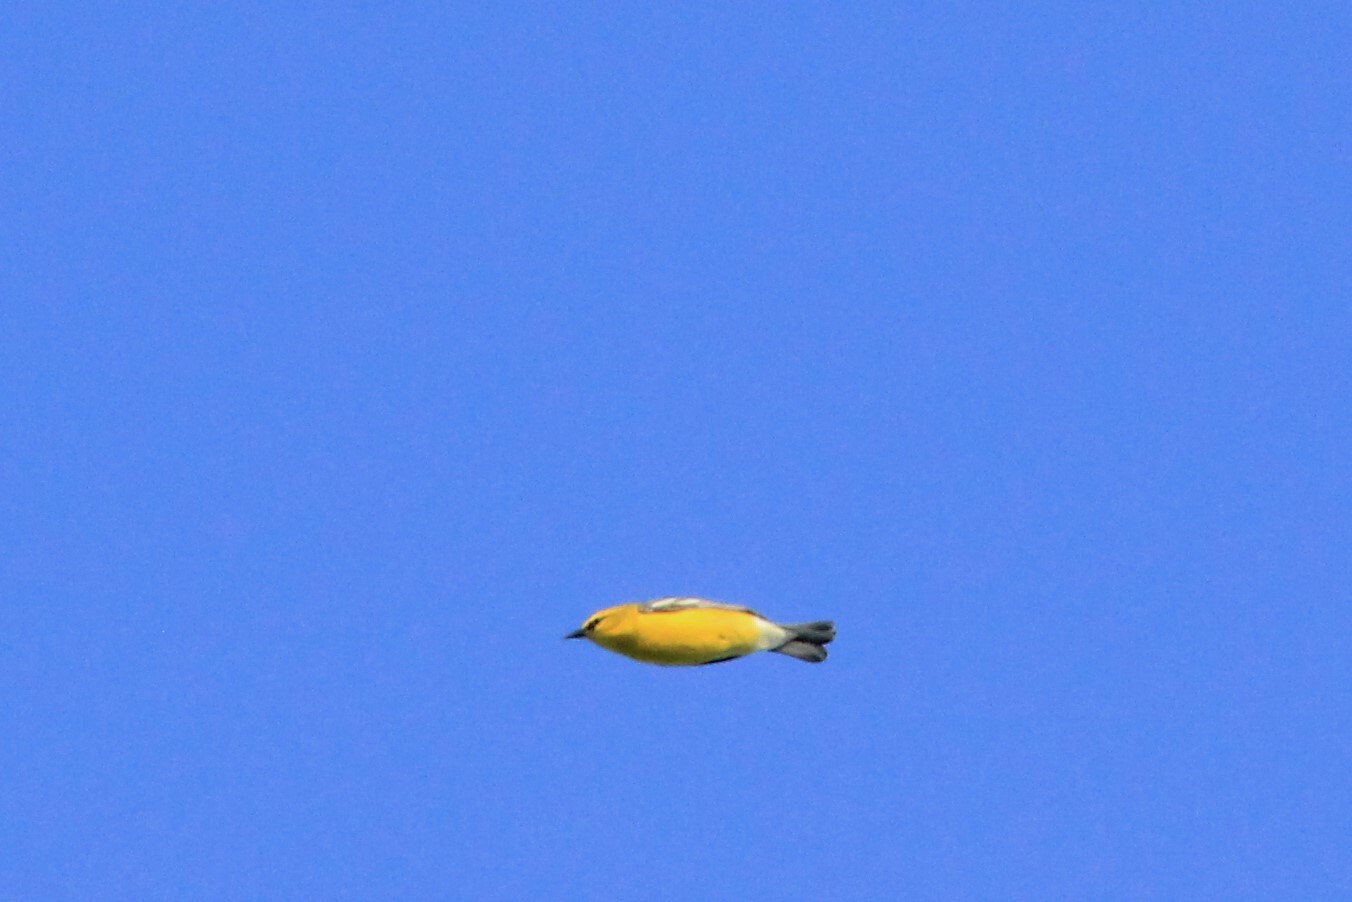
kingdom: Animalia
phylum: Chordata
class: Aves
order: Passeriformes
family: Parulidae
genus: Vermivora
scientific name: Vermivora cyanoptera
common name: Blue-winged warbler
